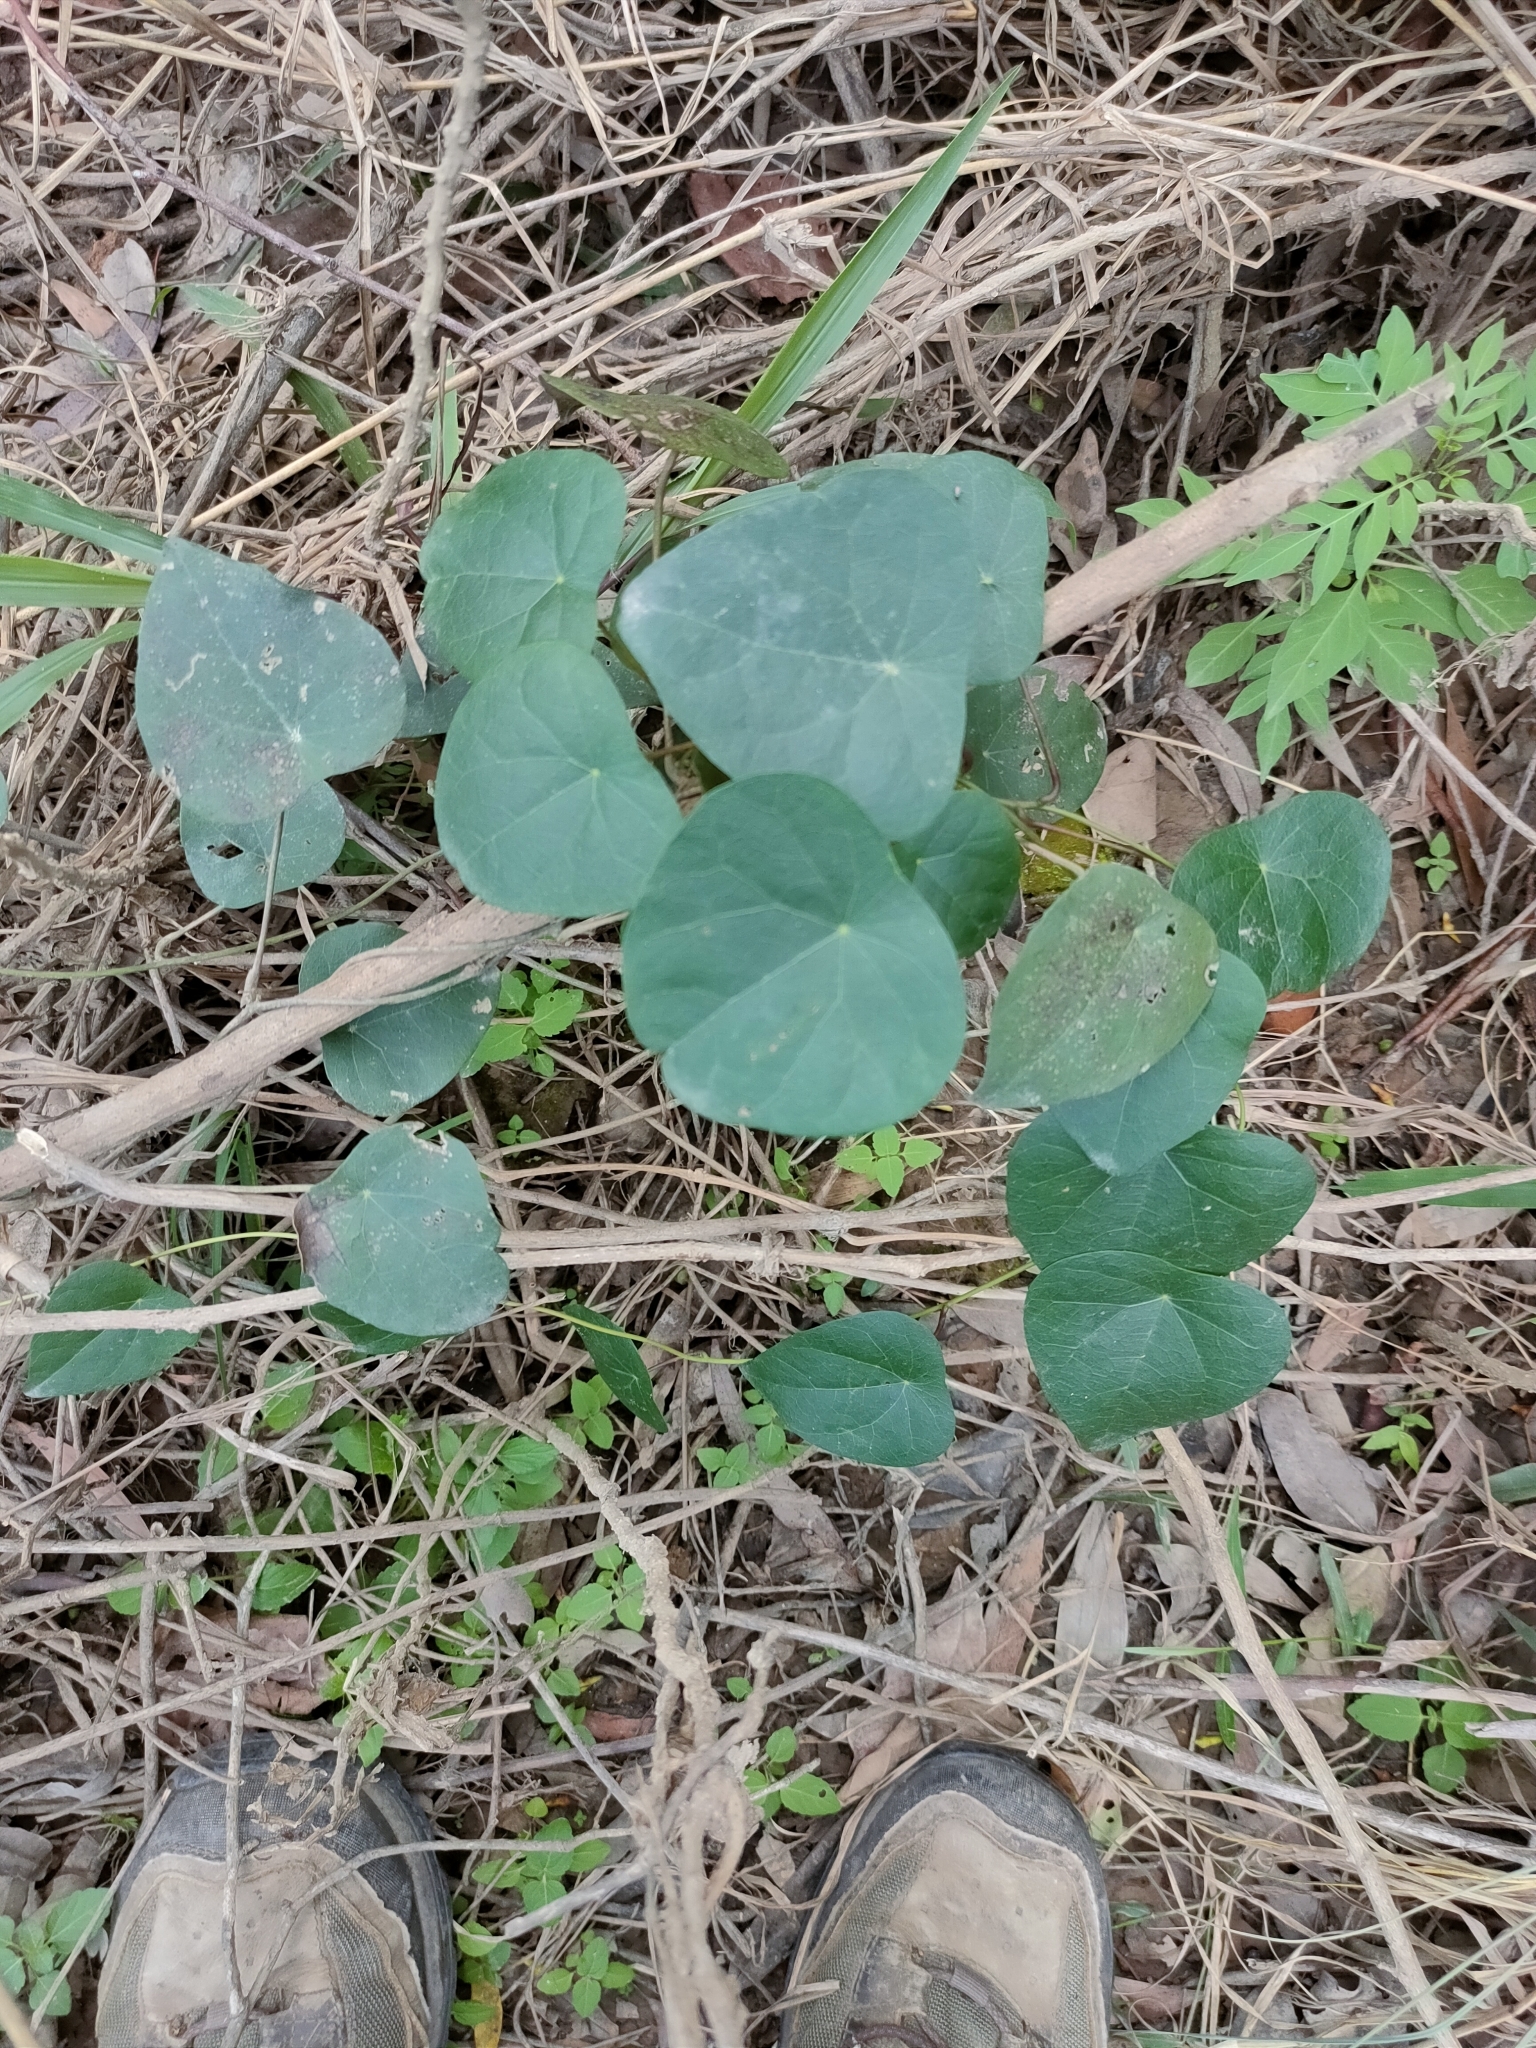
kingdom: Plantae
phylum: Tracheophyta
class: Magnoliopsida
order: Ranunculales
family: Menispermaceae
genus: Stephania
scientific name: Stephania japonica
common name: Snake vine
